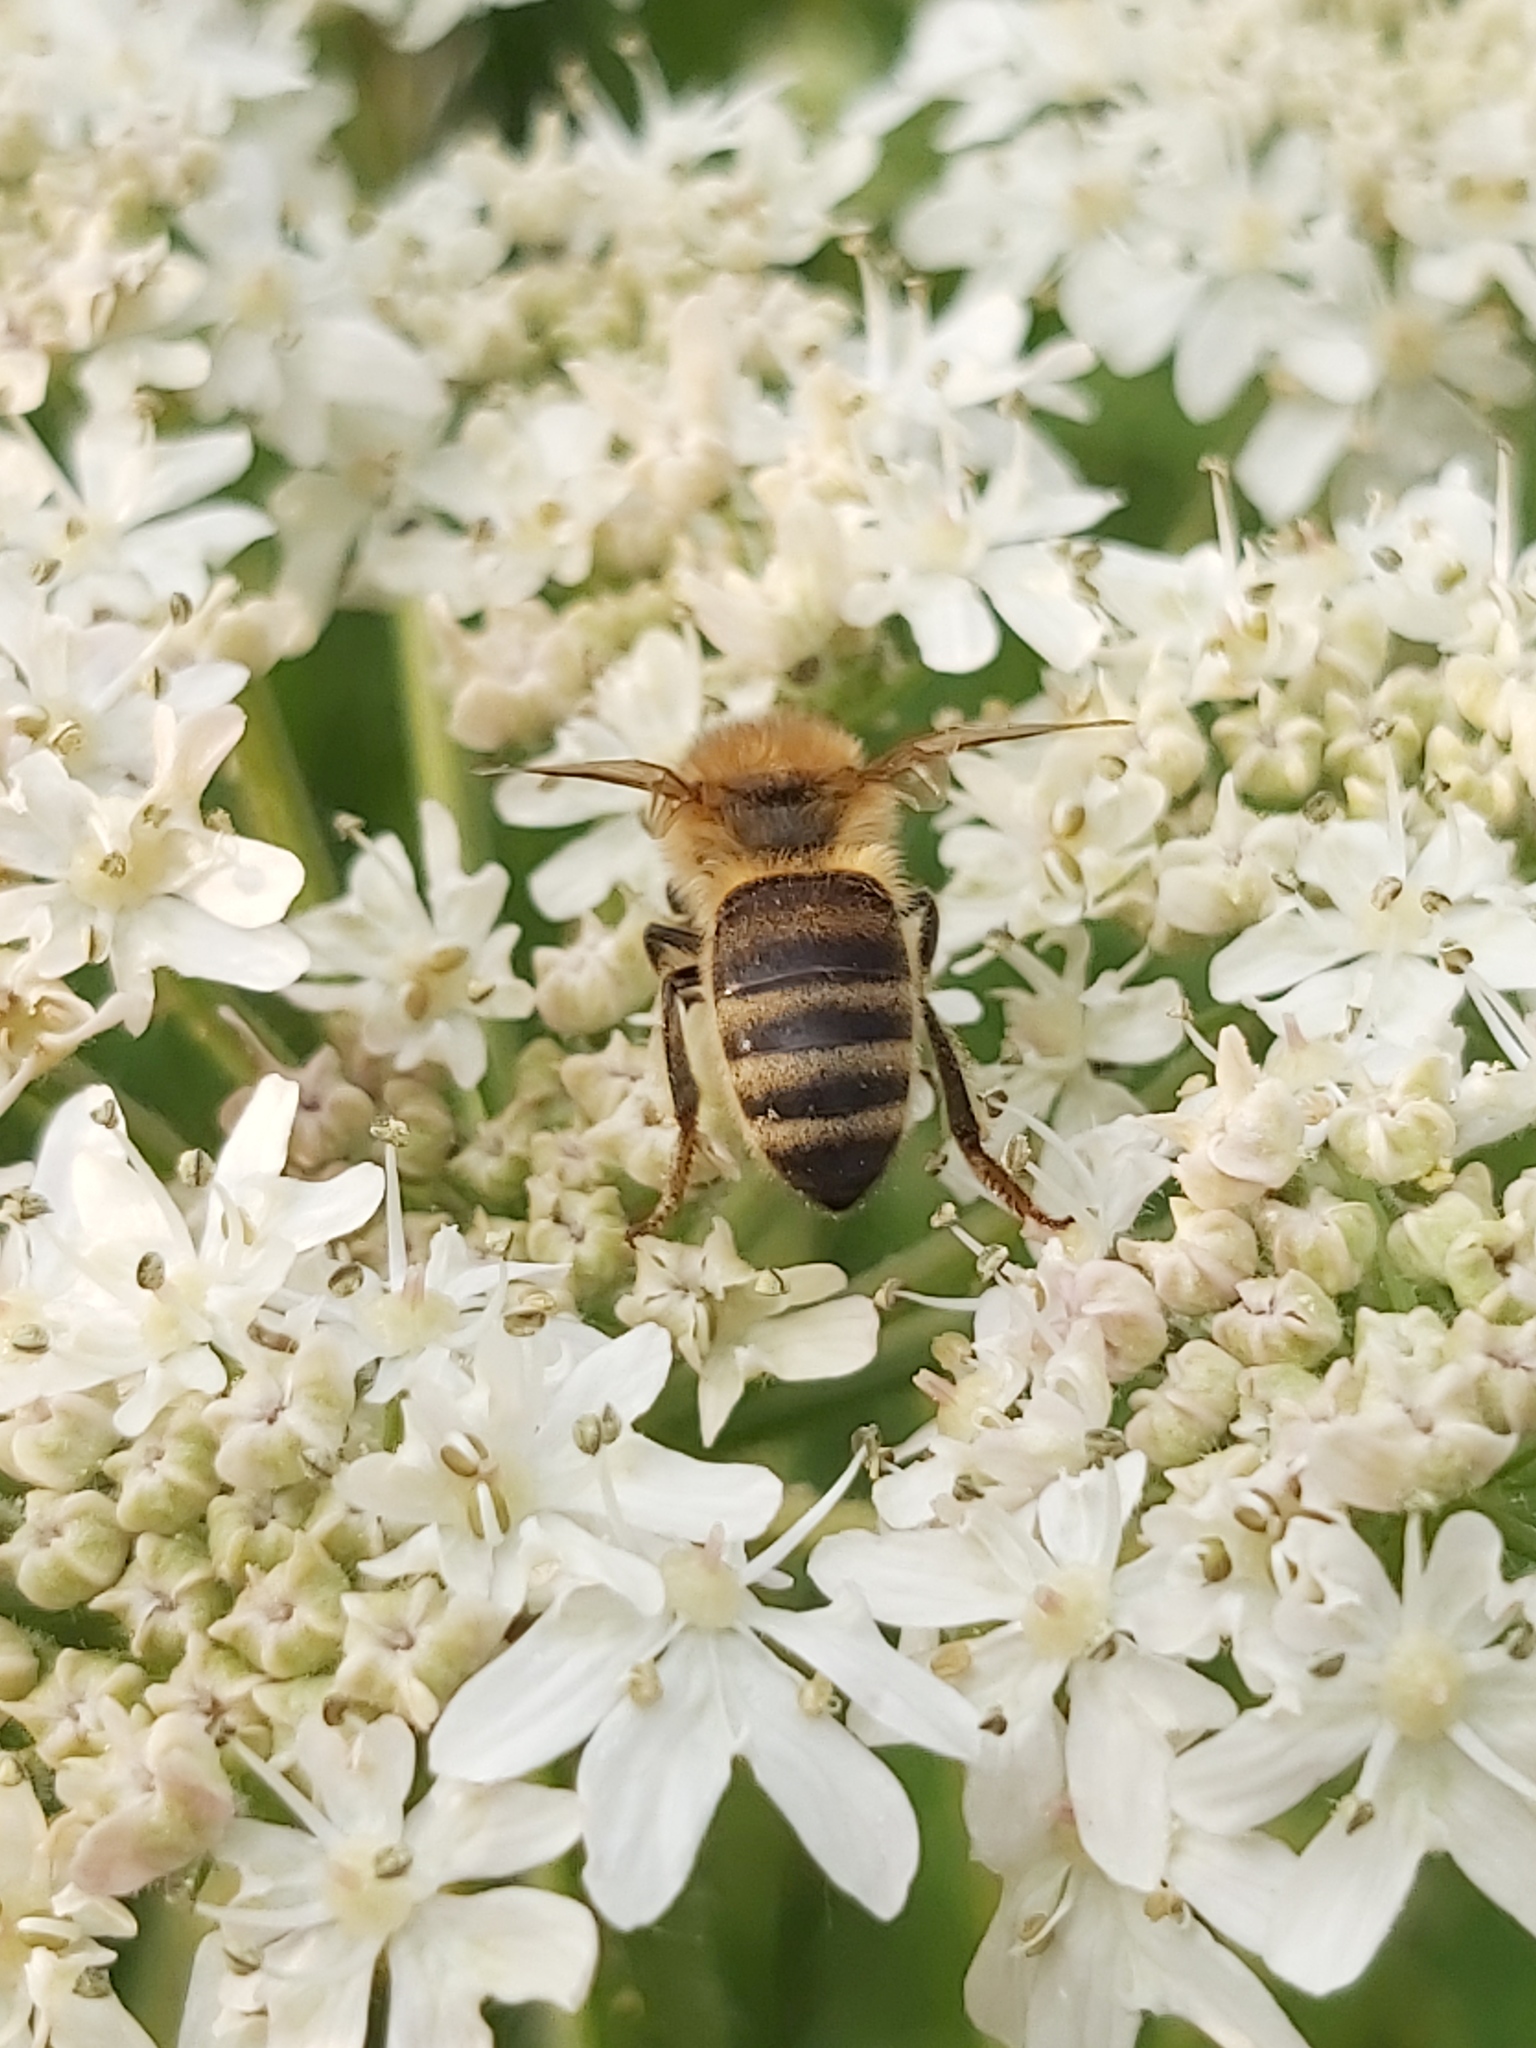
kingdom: Animalia
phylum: Arthropoda
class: Insecta
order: Hymenoptera
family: Apidae
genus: Apis
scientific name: Apis mellifera
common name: Honey bee
